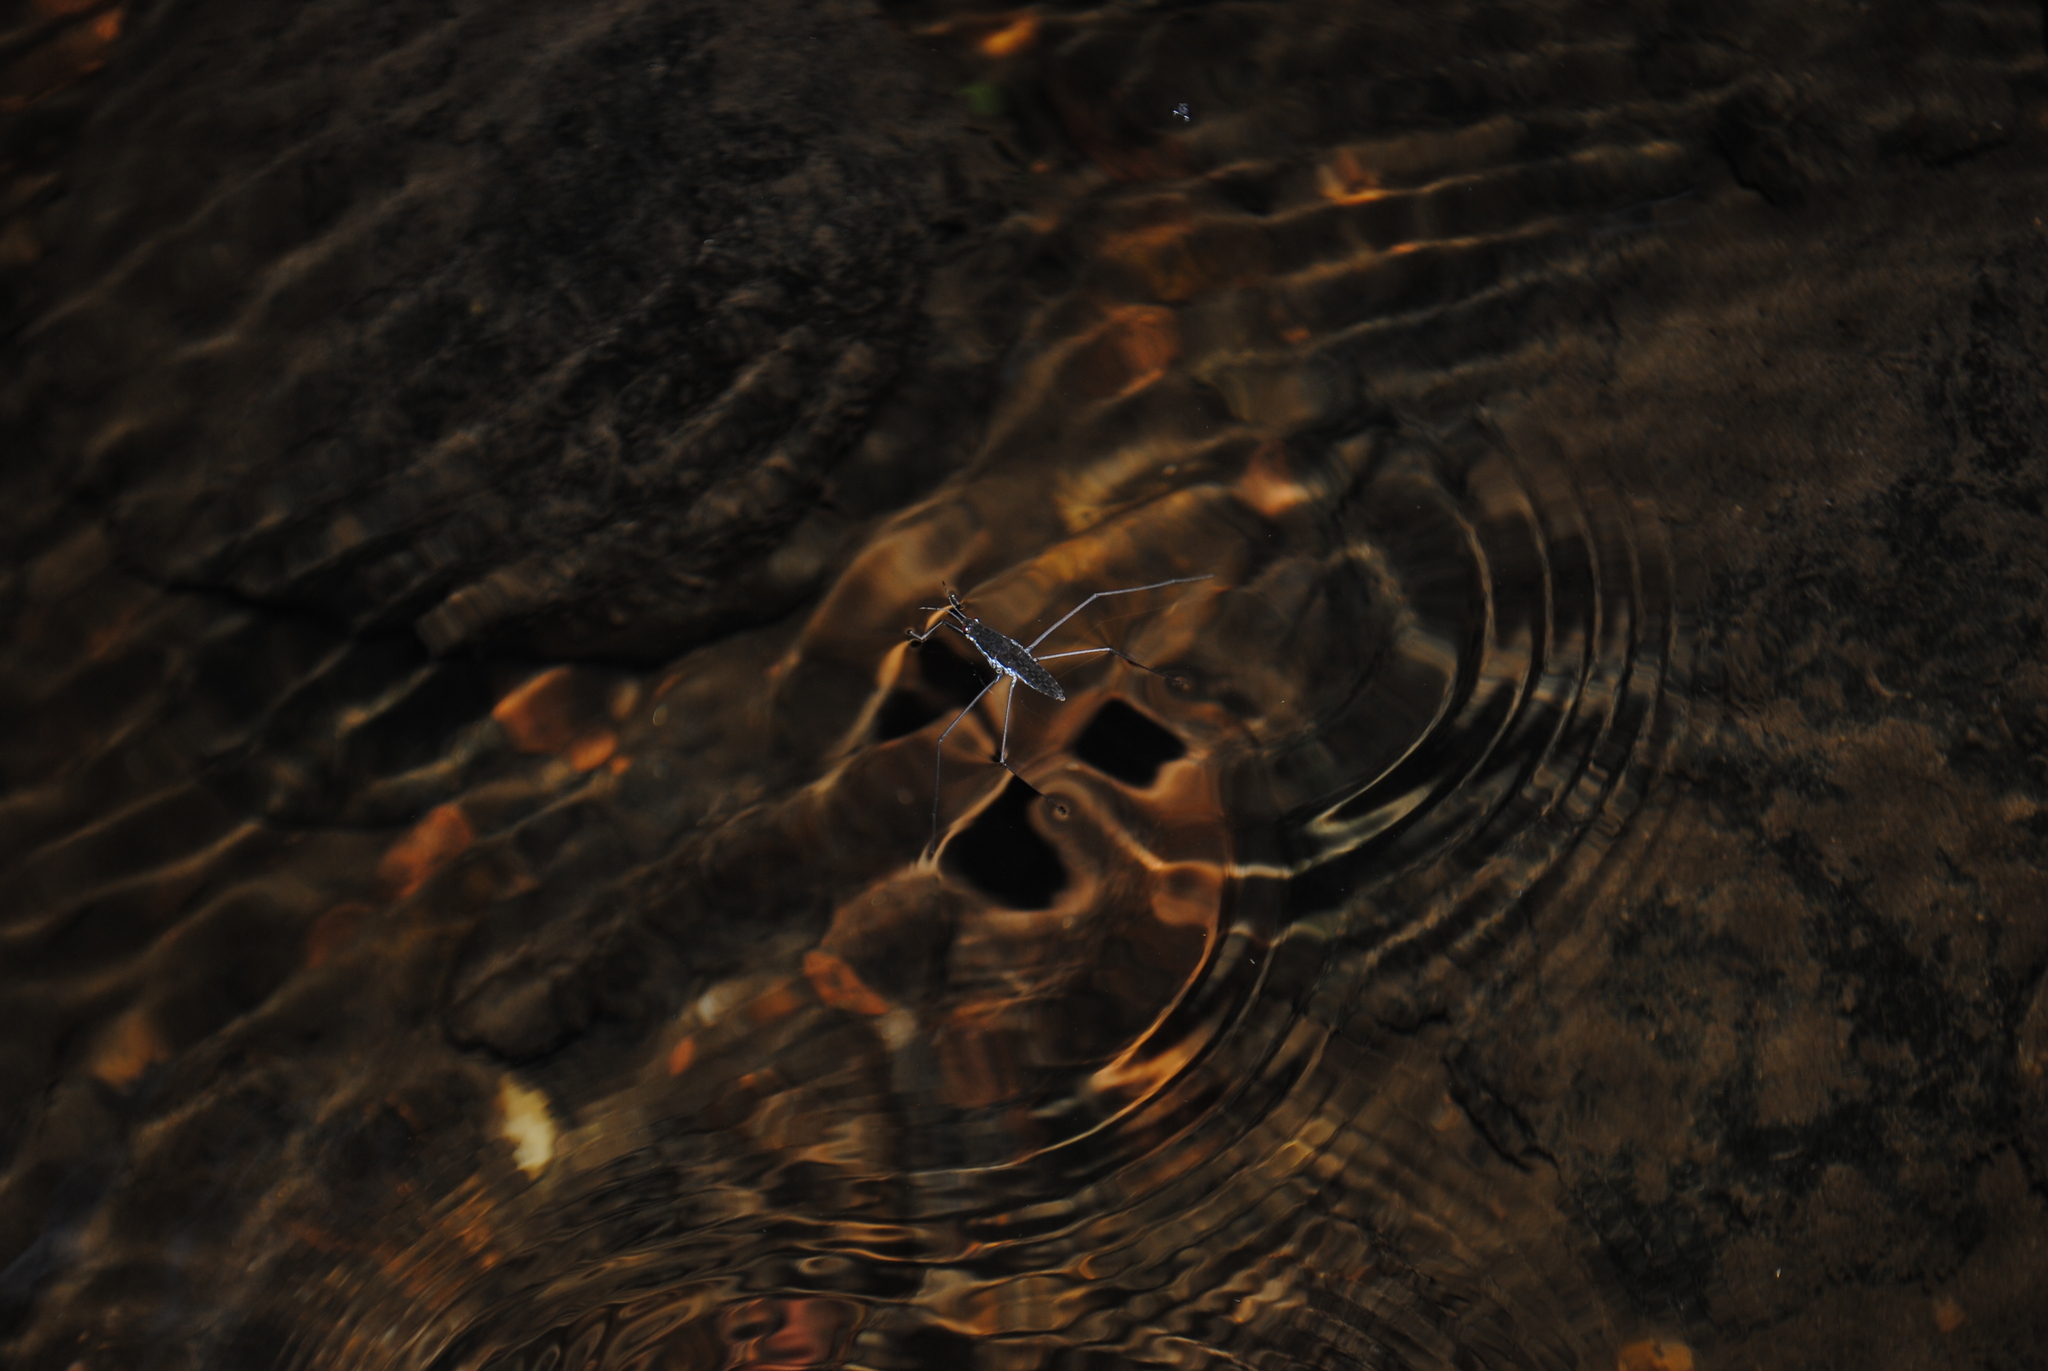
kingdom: Animalia
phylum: Arthropoda
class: Insecta
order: Hemiptera
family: Gerridae
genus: Aquarius
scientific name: Aquarius remigis
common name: Common water strider
